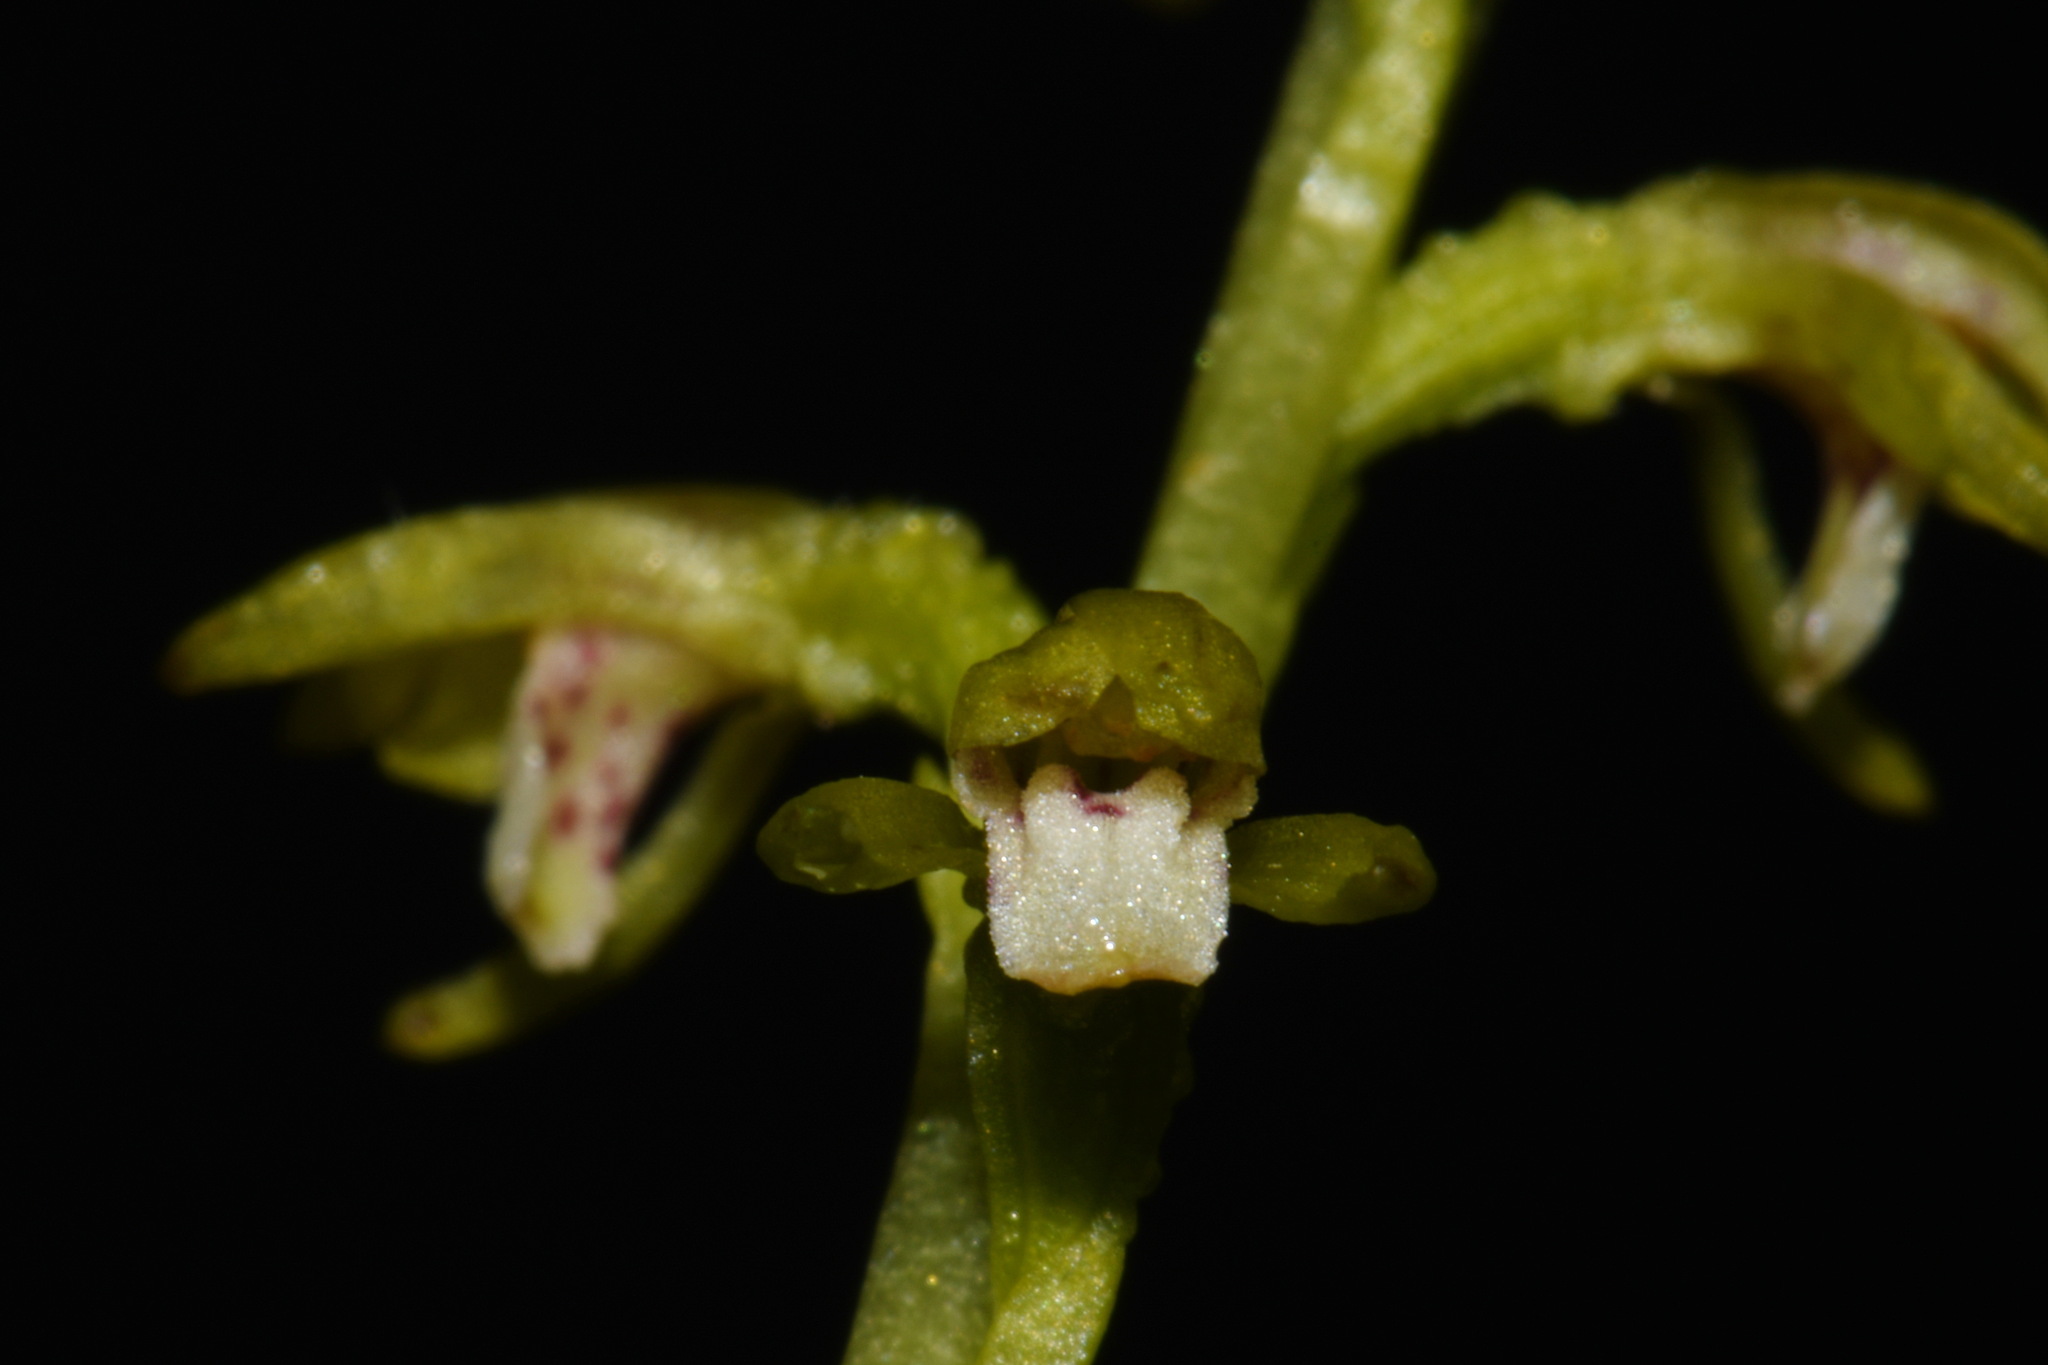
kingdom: Plantae
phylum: Tracheophyta
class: Liliopsida
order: Asparagales
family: Orchidaceae
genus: Corallorhiza
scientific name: Corallorhiza trifida
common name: Yellow coralroot
